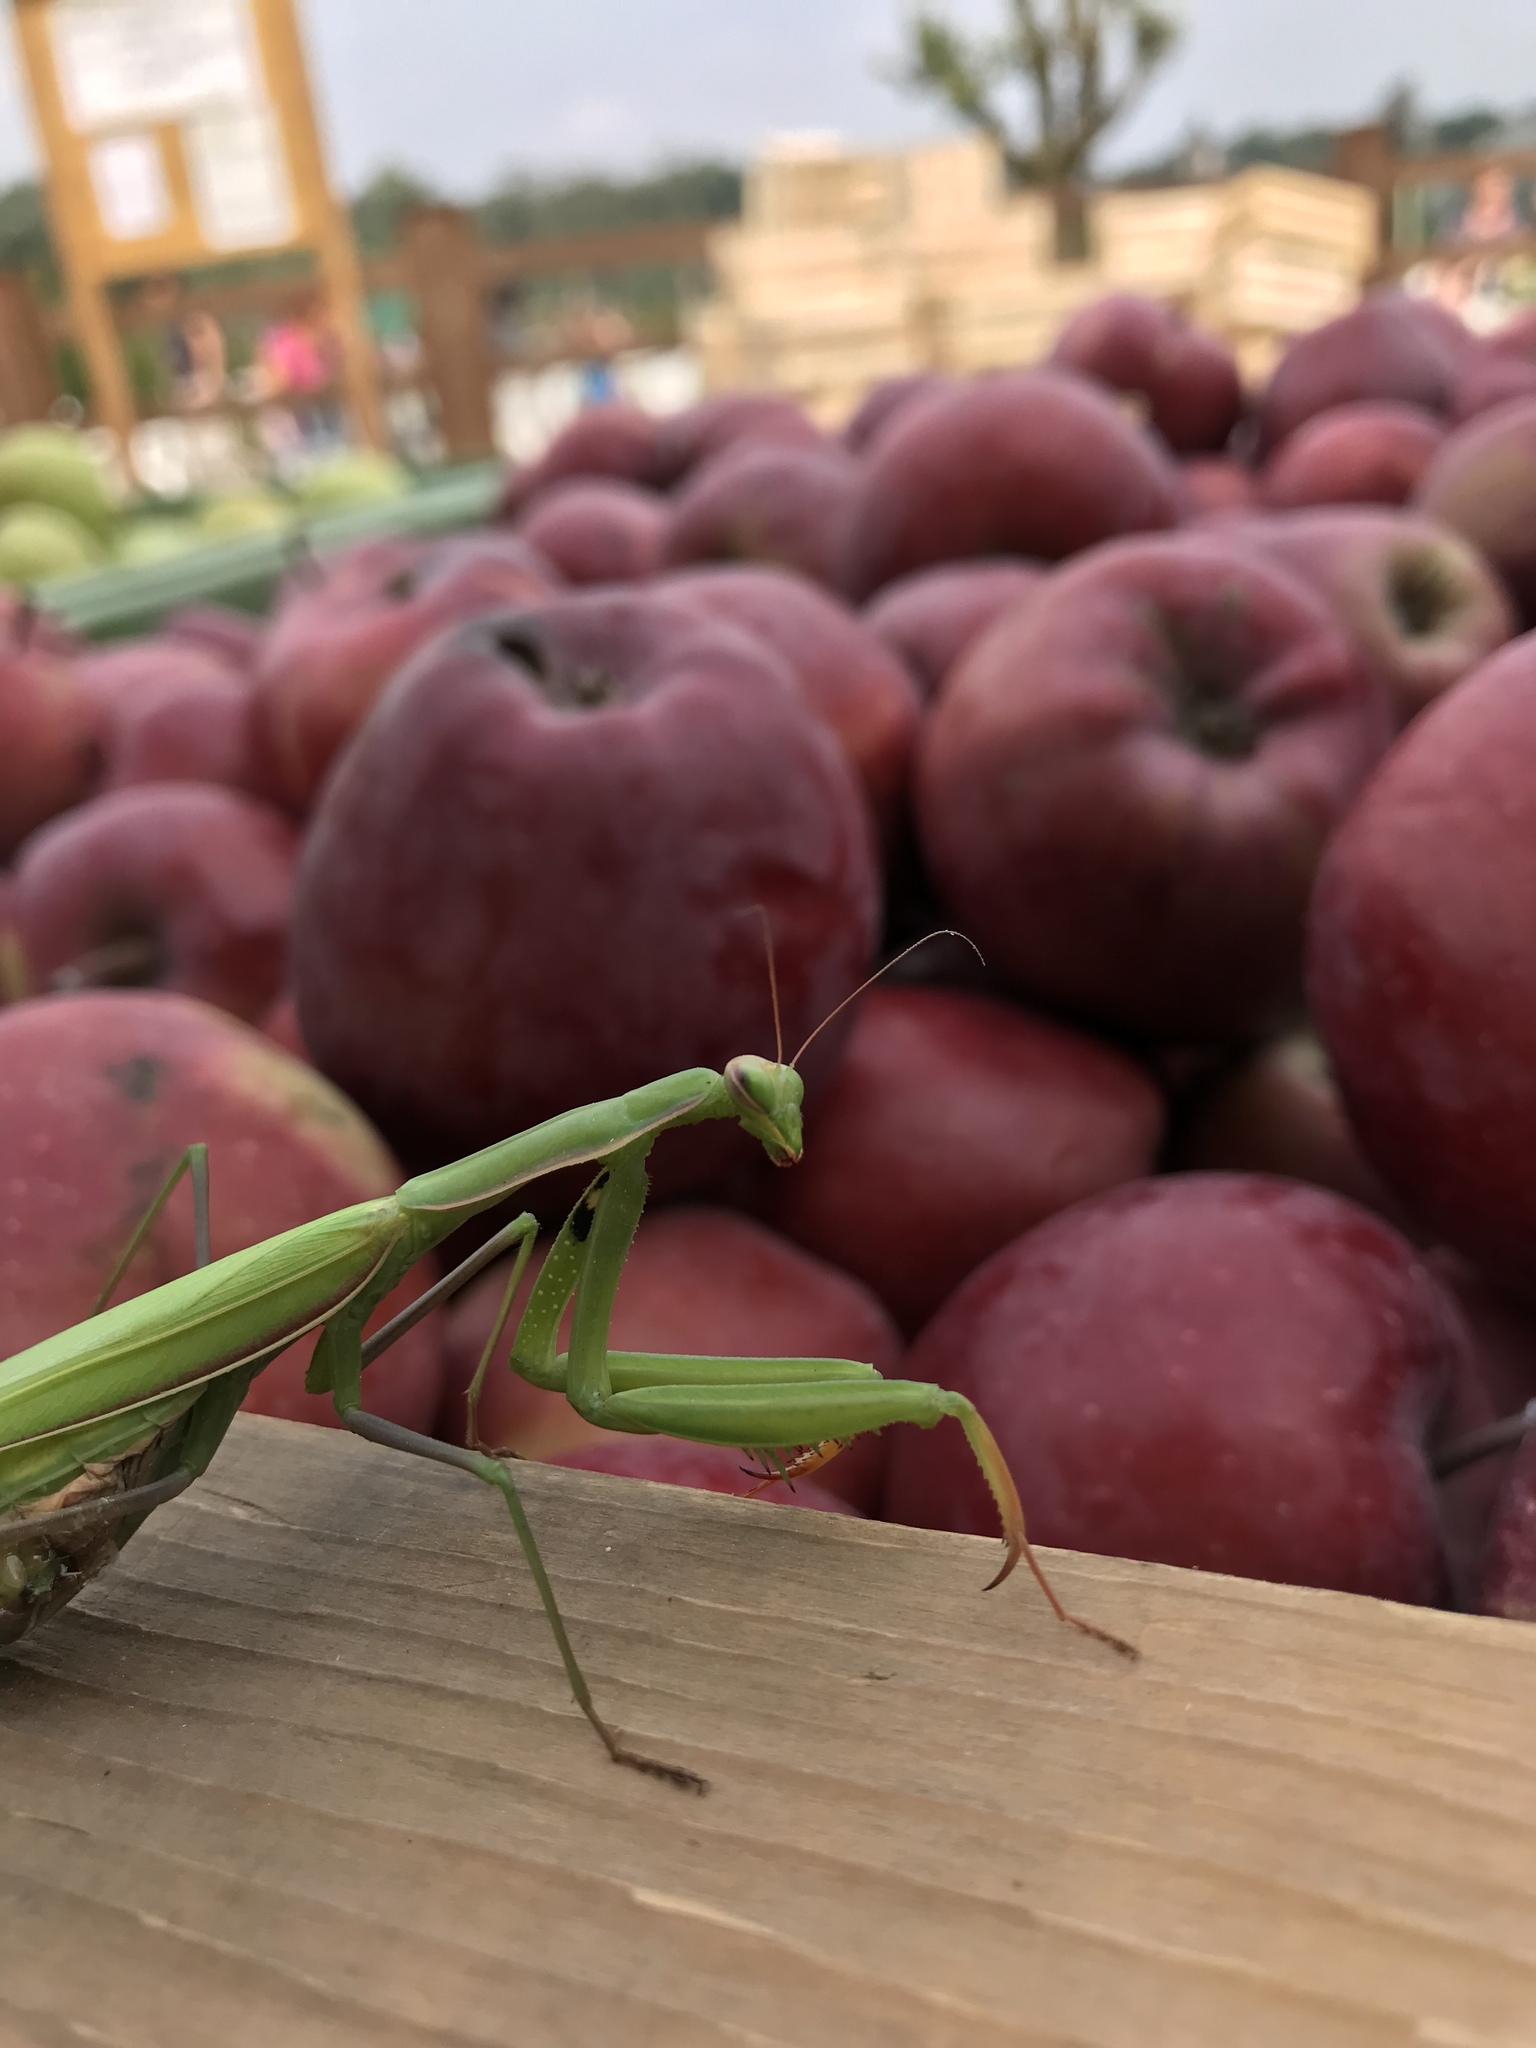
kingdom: Animalia
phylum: Arthropoda
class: Insecta
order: Mantodea
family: Mantidae
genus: Mantis
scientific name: Mantis religiosa
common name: Praying mantis
